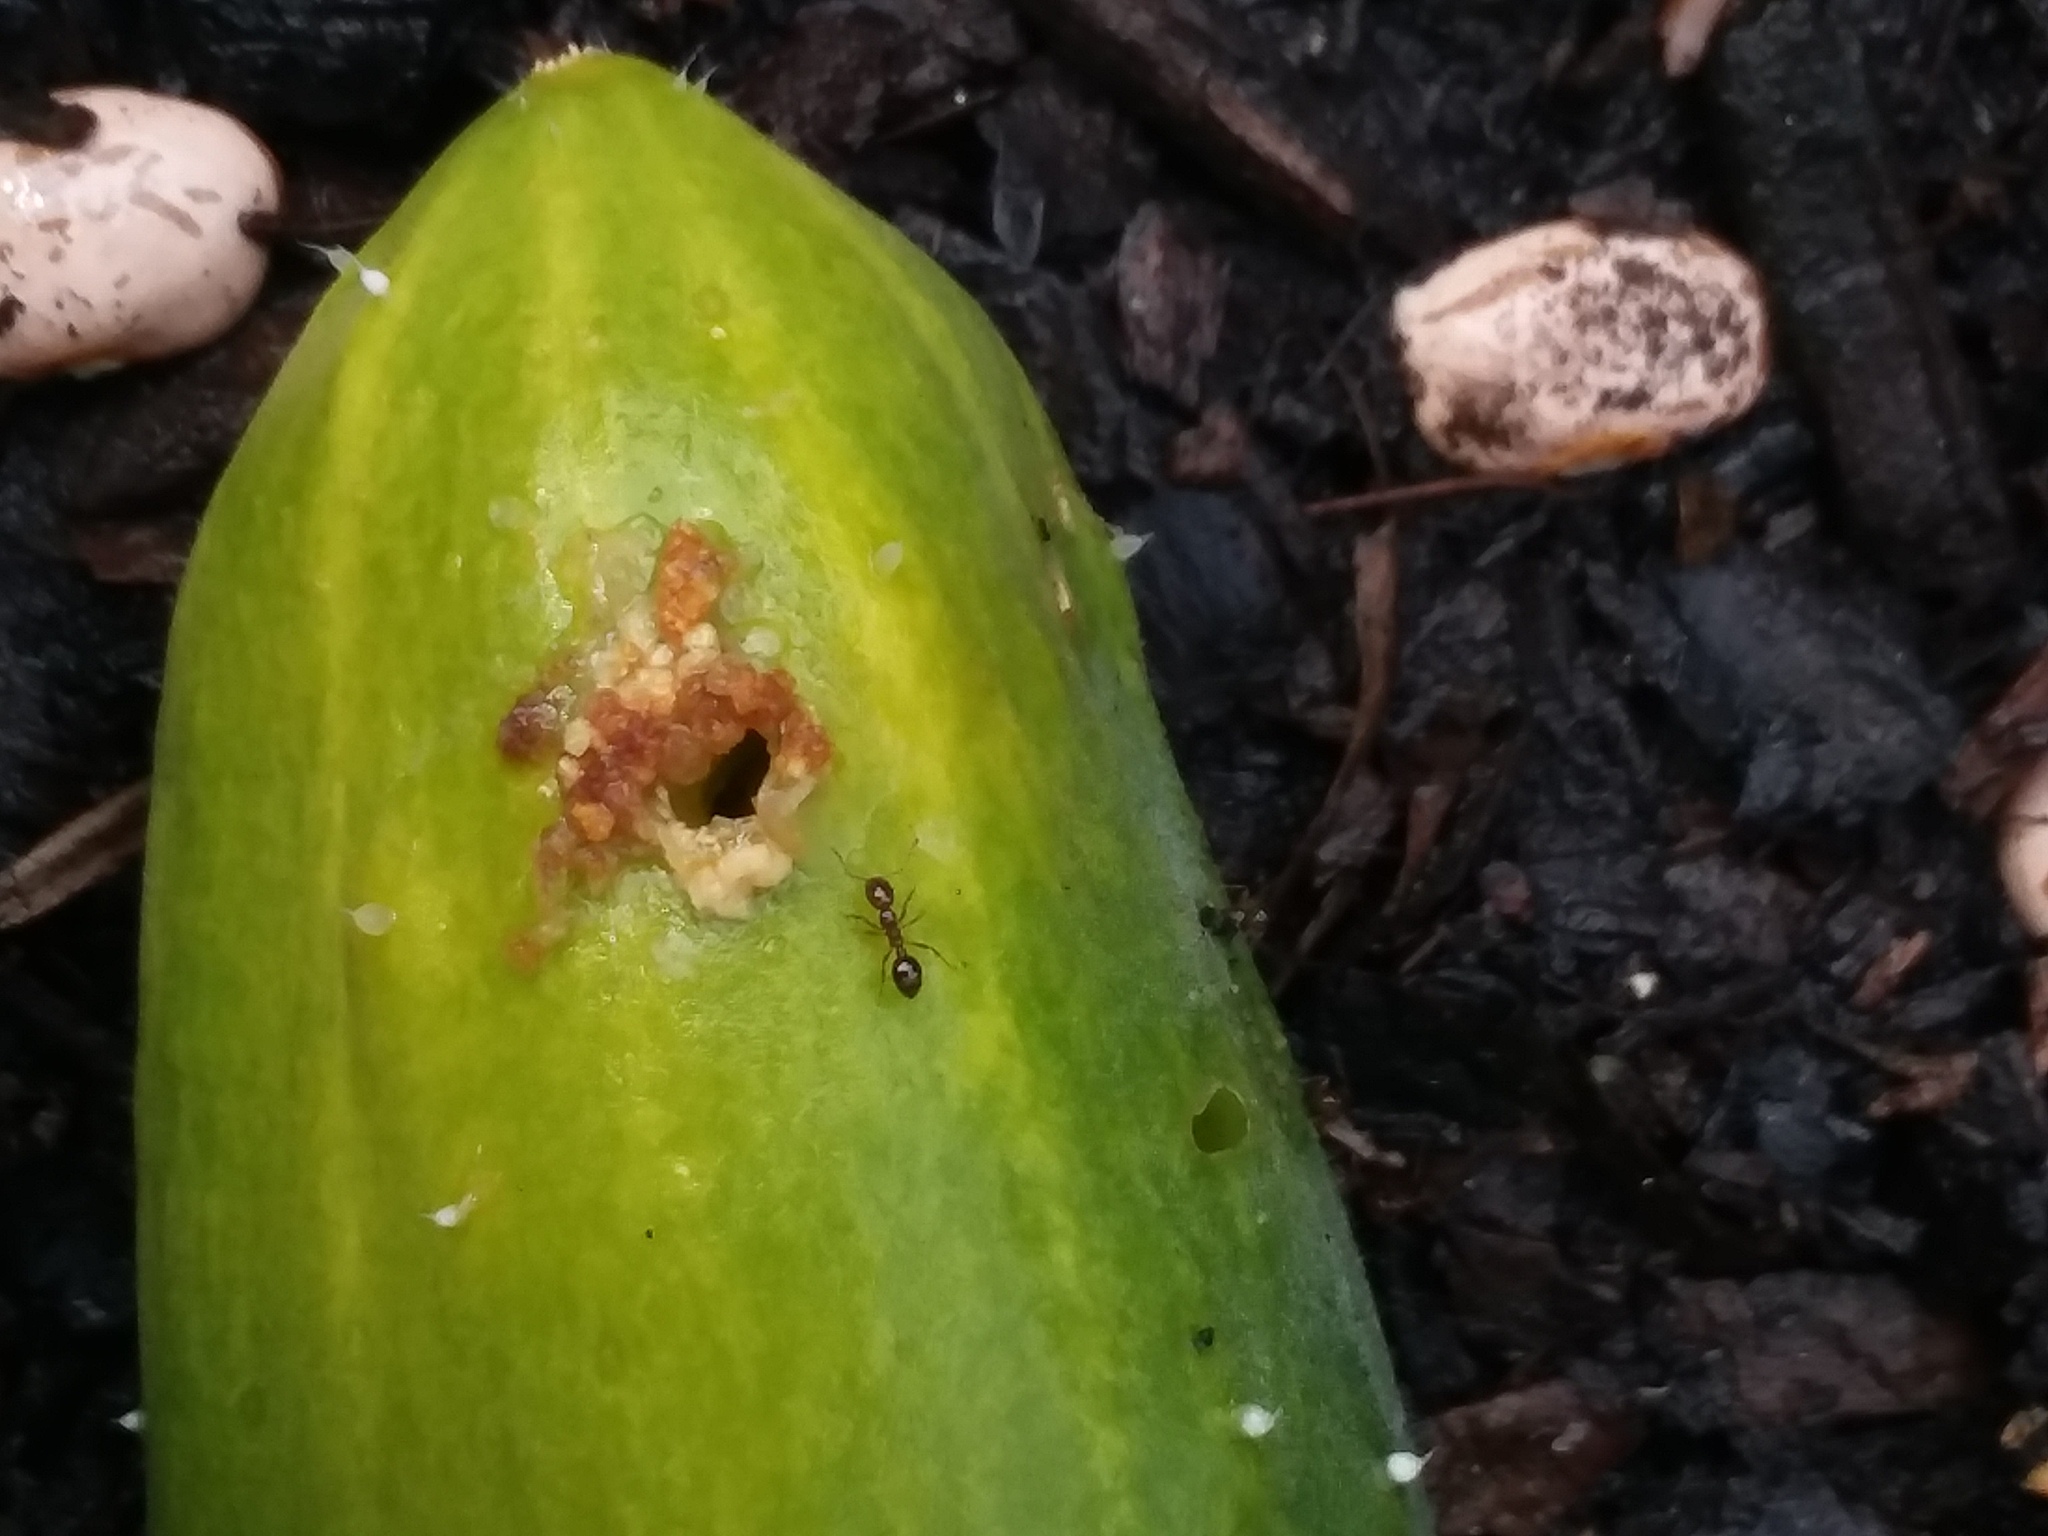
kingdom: Animalia
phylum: Arthropoda
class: Insecta
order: Hymenoptera
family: Formicidae
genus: Solenopsis
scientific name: Solenopsis invicta
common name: Red imported fire ant
